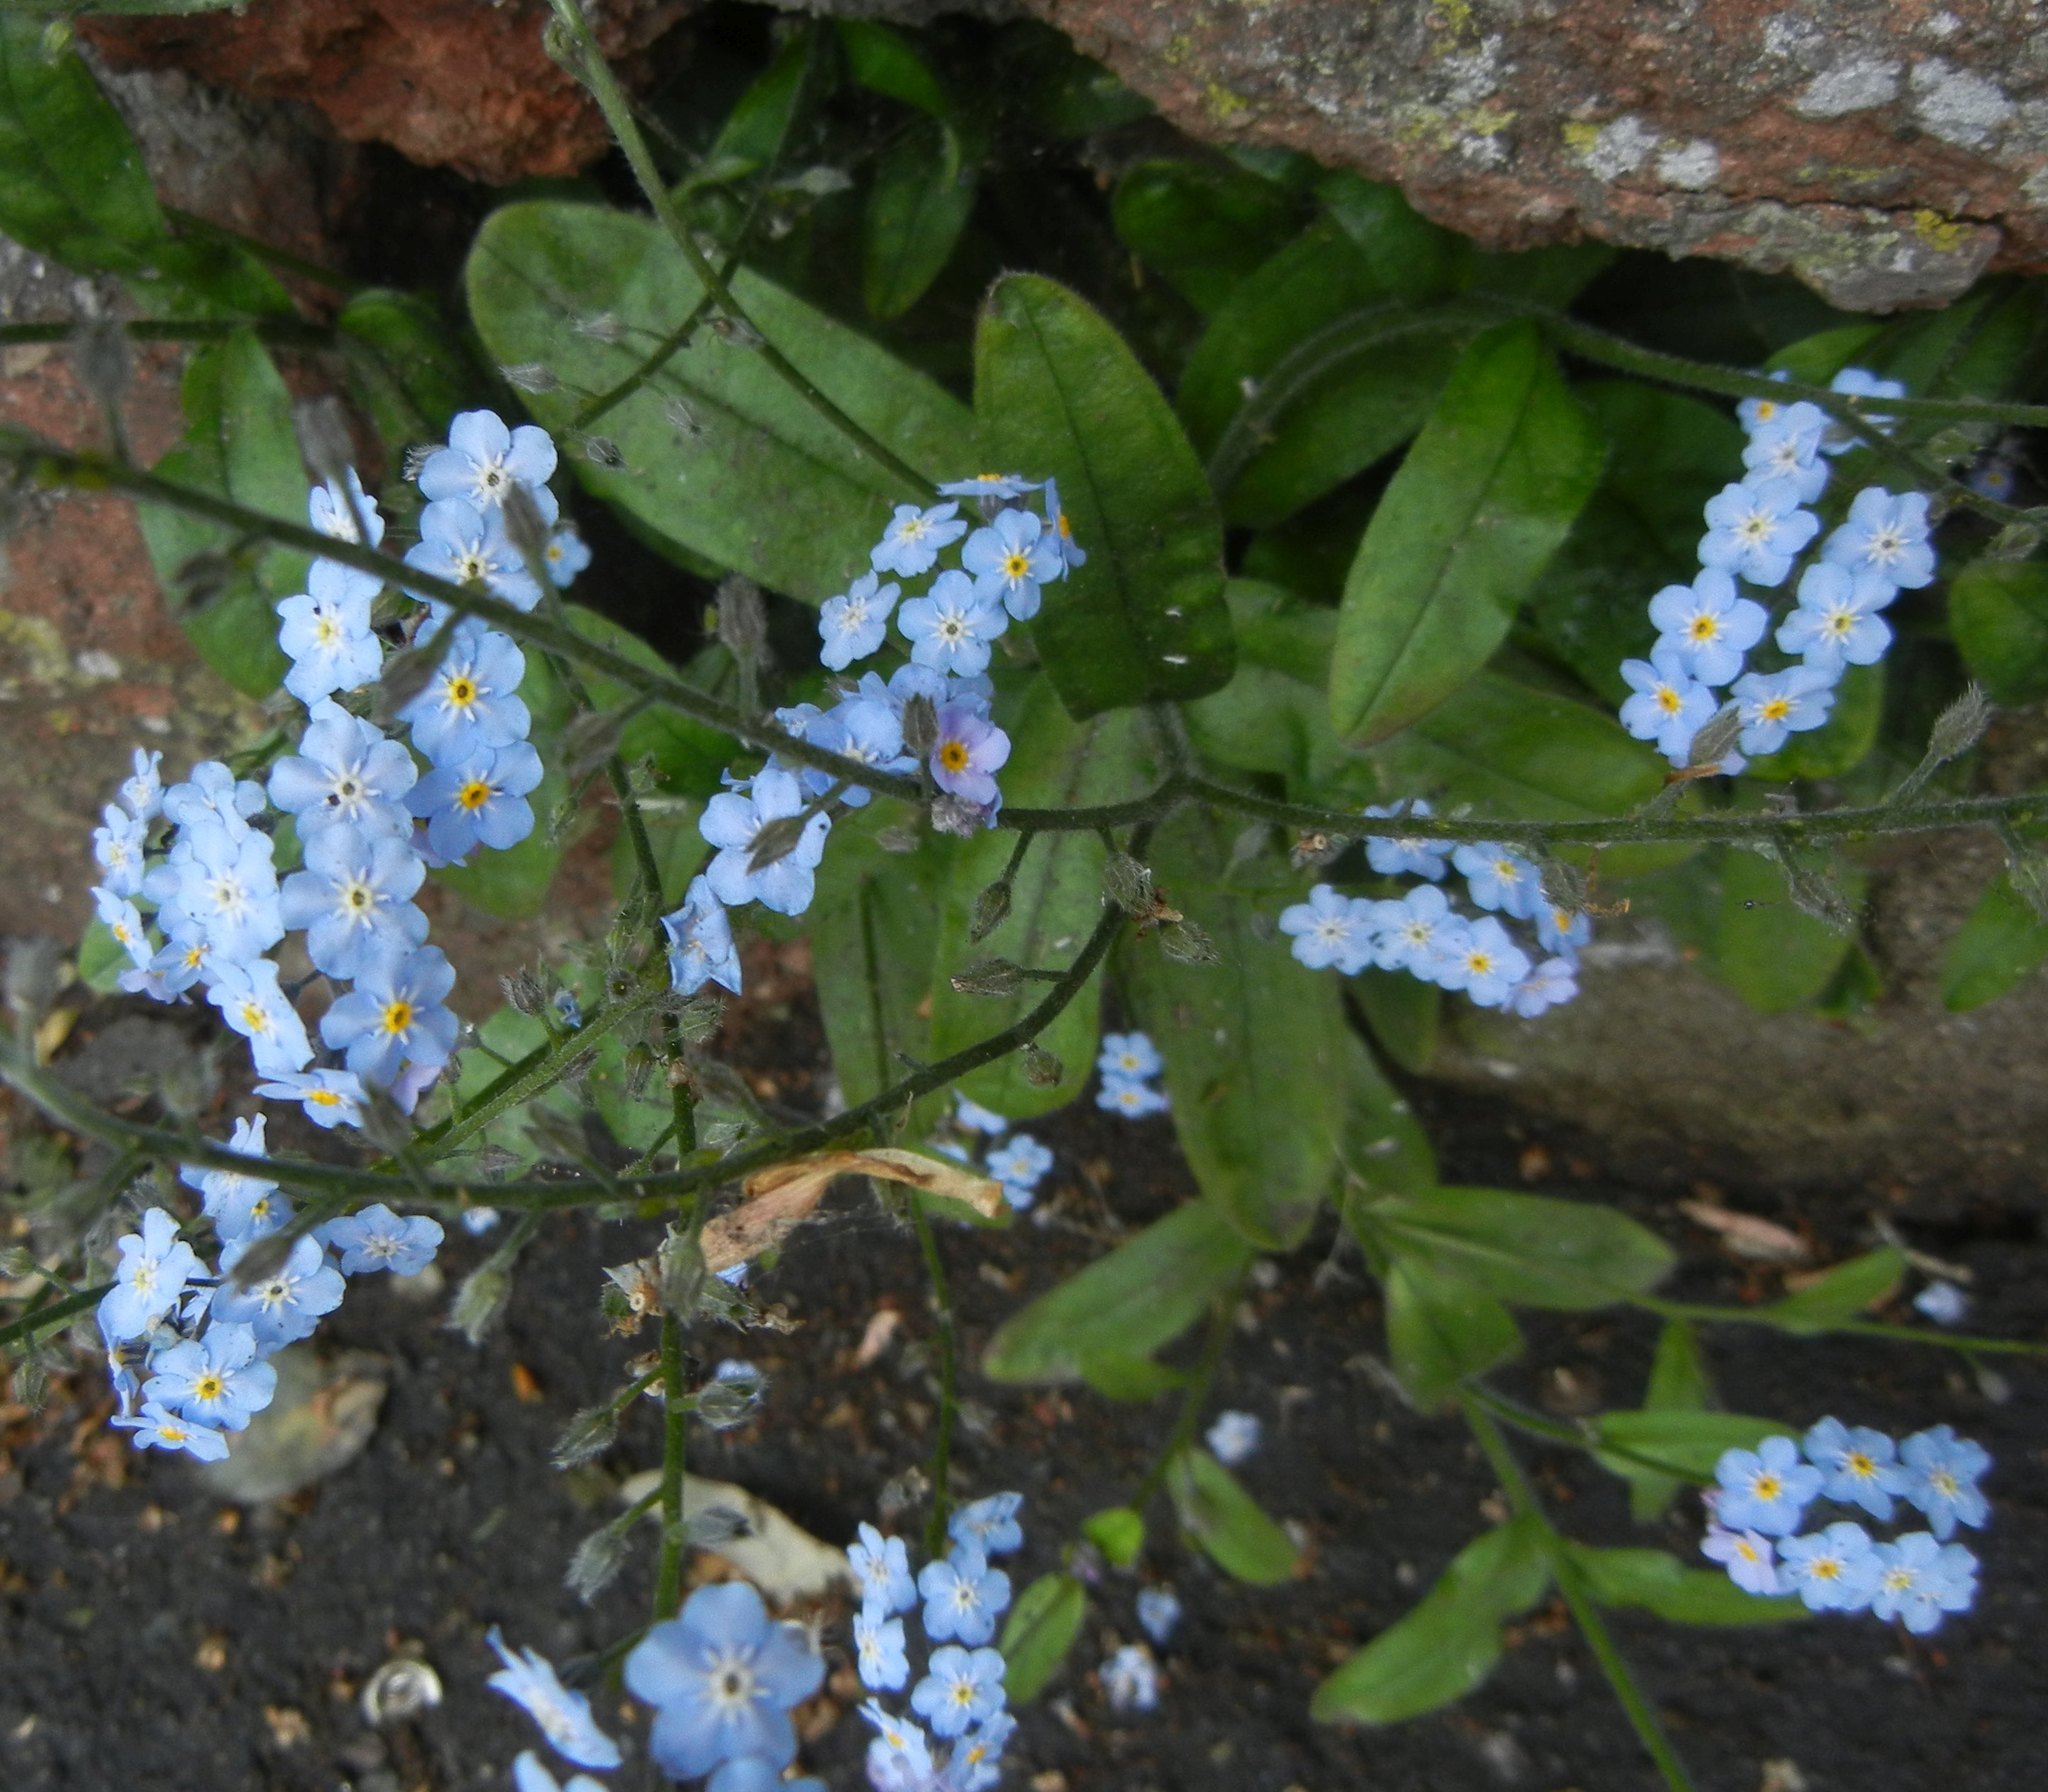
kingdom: Plantae
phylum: Tracheophyta
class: Magnoliopsida
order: Boraginales
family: Boraginaceae
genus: Myosotis
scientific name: Myosotis sylvatica
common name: Wood forget-me-not
